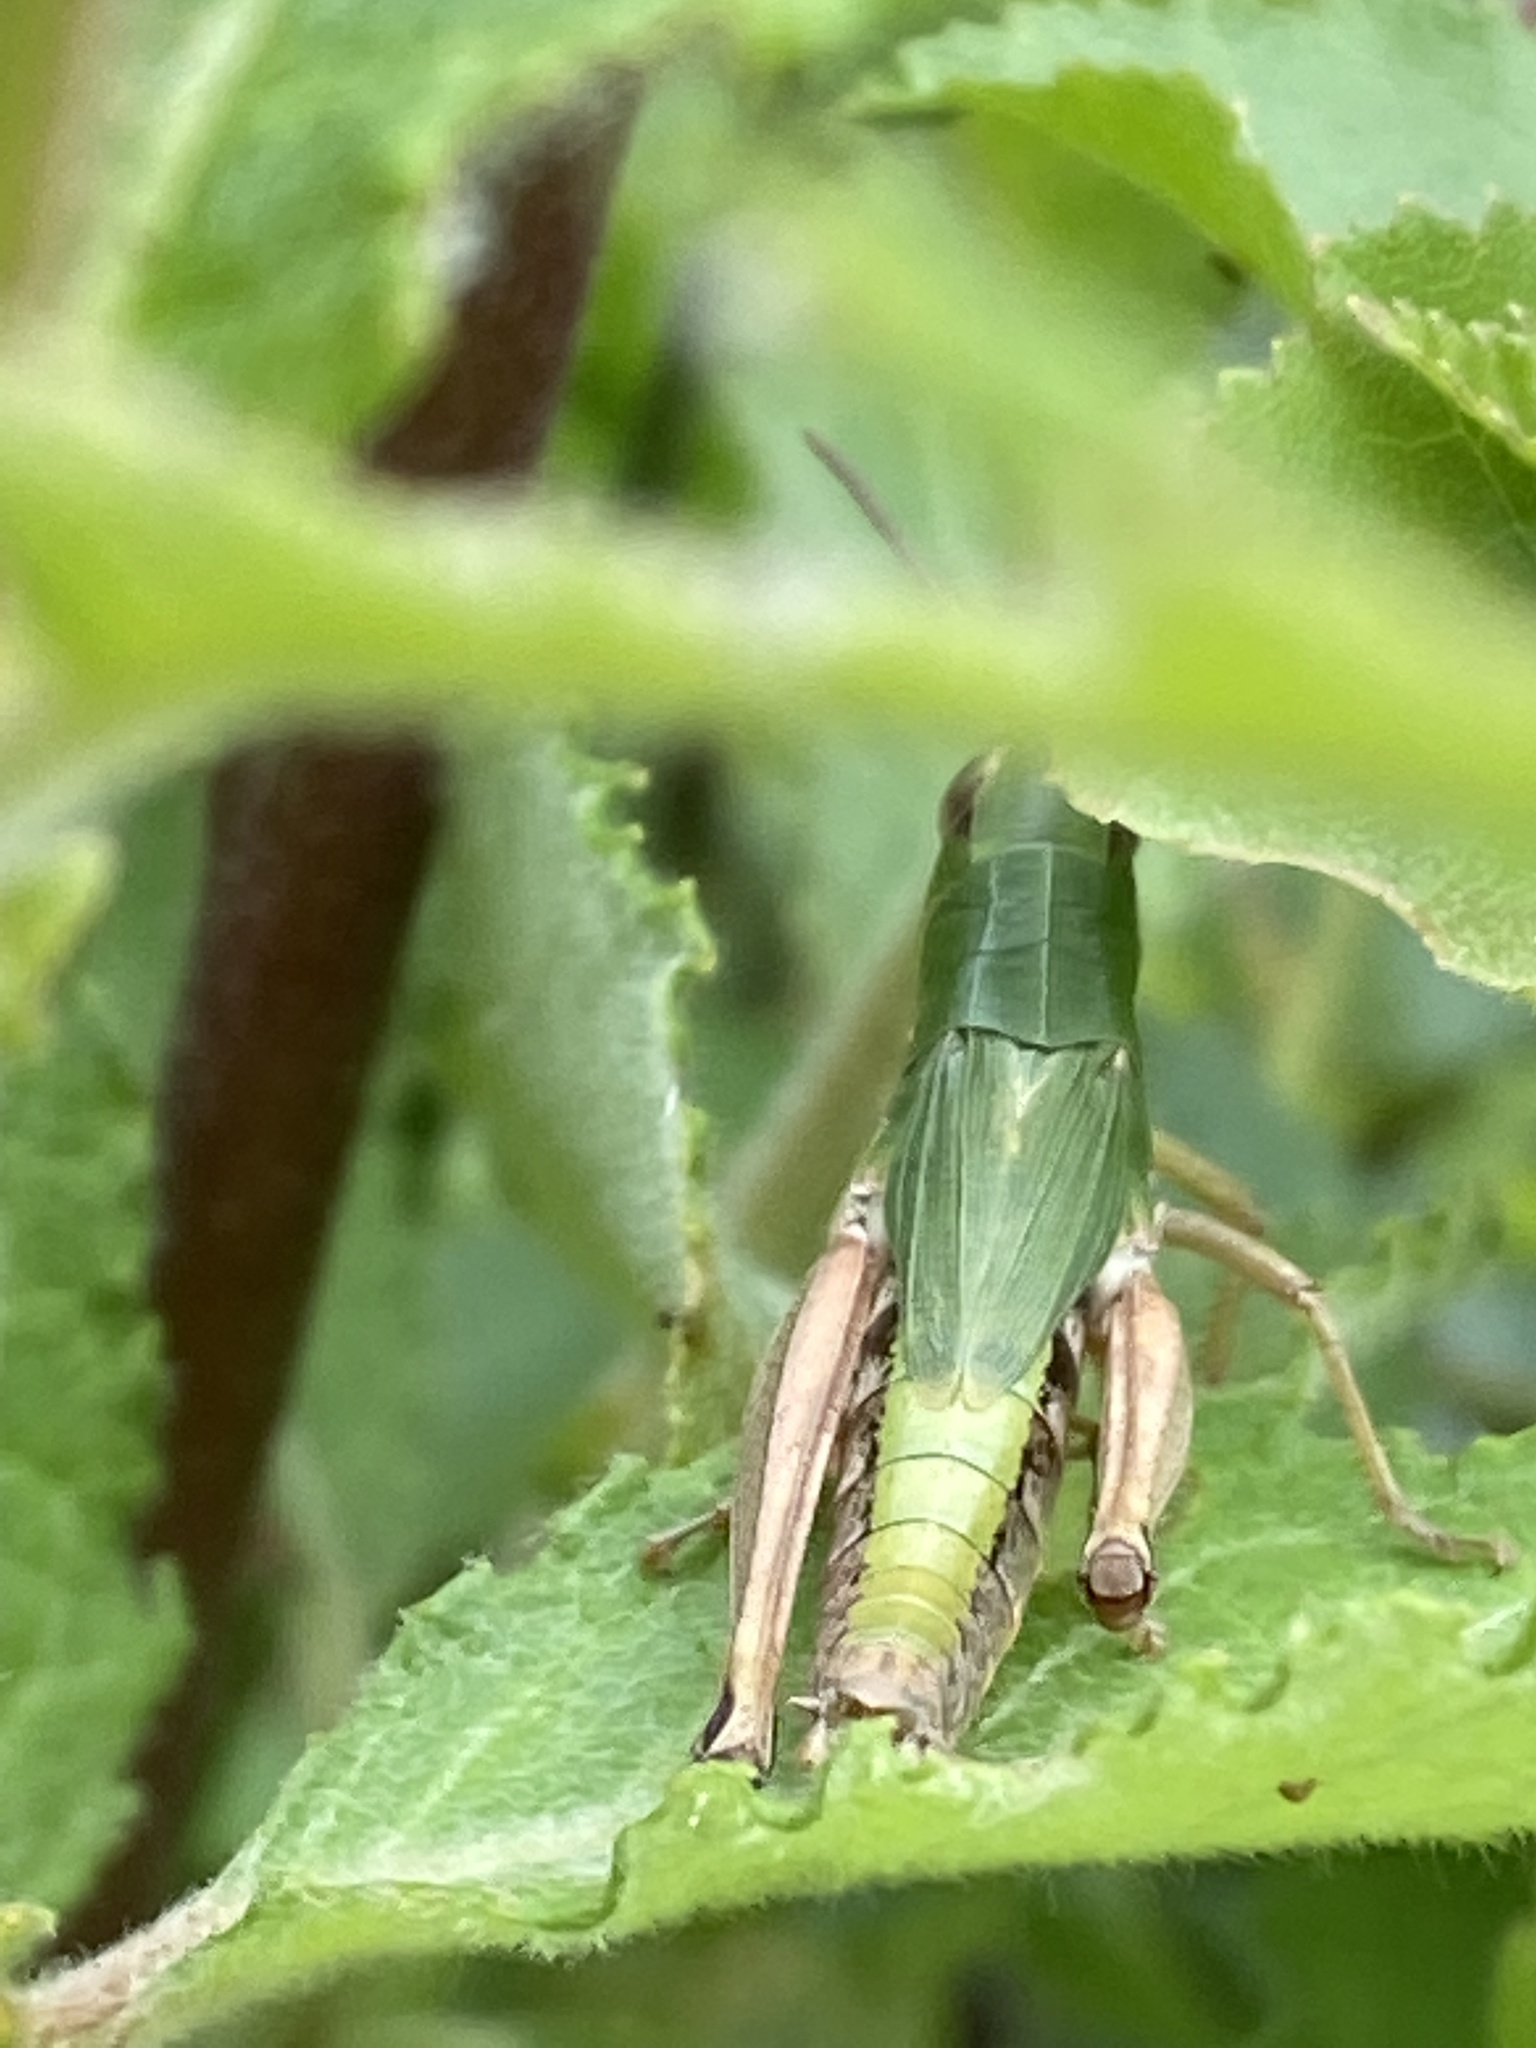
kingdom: Animalia
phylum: Arthropoda
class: Insecta
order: Orthoptera
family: Acrididae
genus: Pseudochorthippus
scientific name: Pseudochorthippus parallelus
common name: Meadow grasshopper
